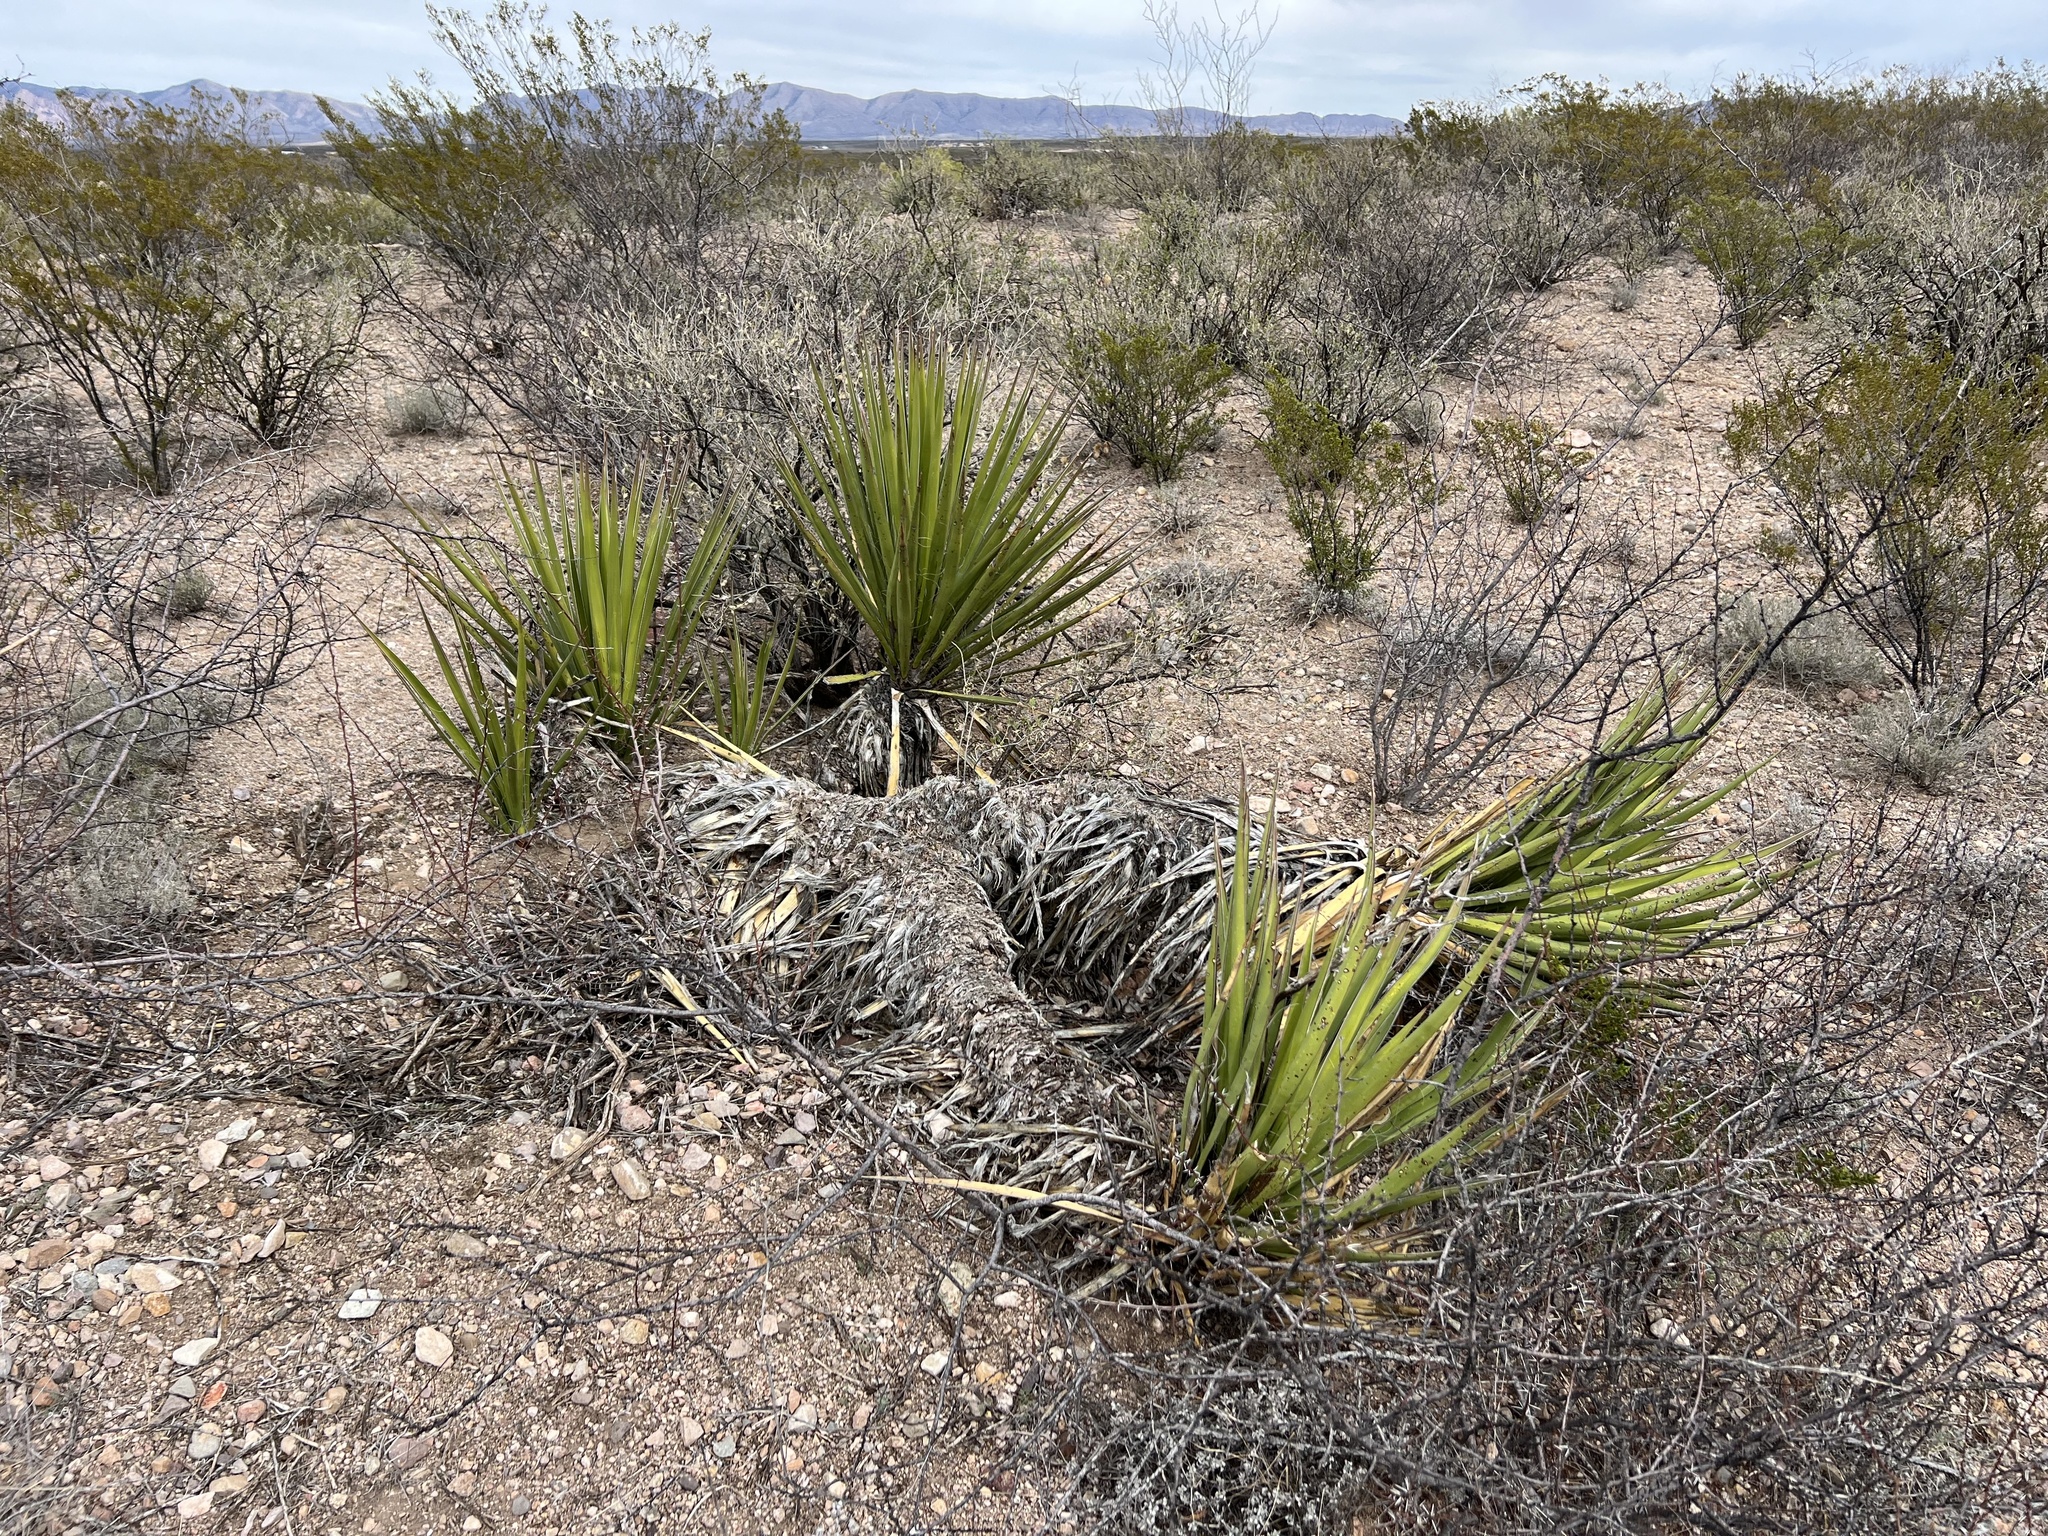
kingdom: Plantae
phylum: Tracheophyta
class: Liliopsida
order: Asparagales
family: Asparagaceae
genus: Yucca
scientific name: Yucca baccata
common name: Banana yucca
